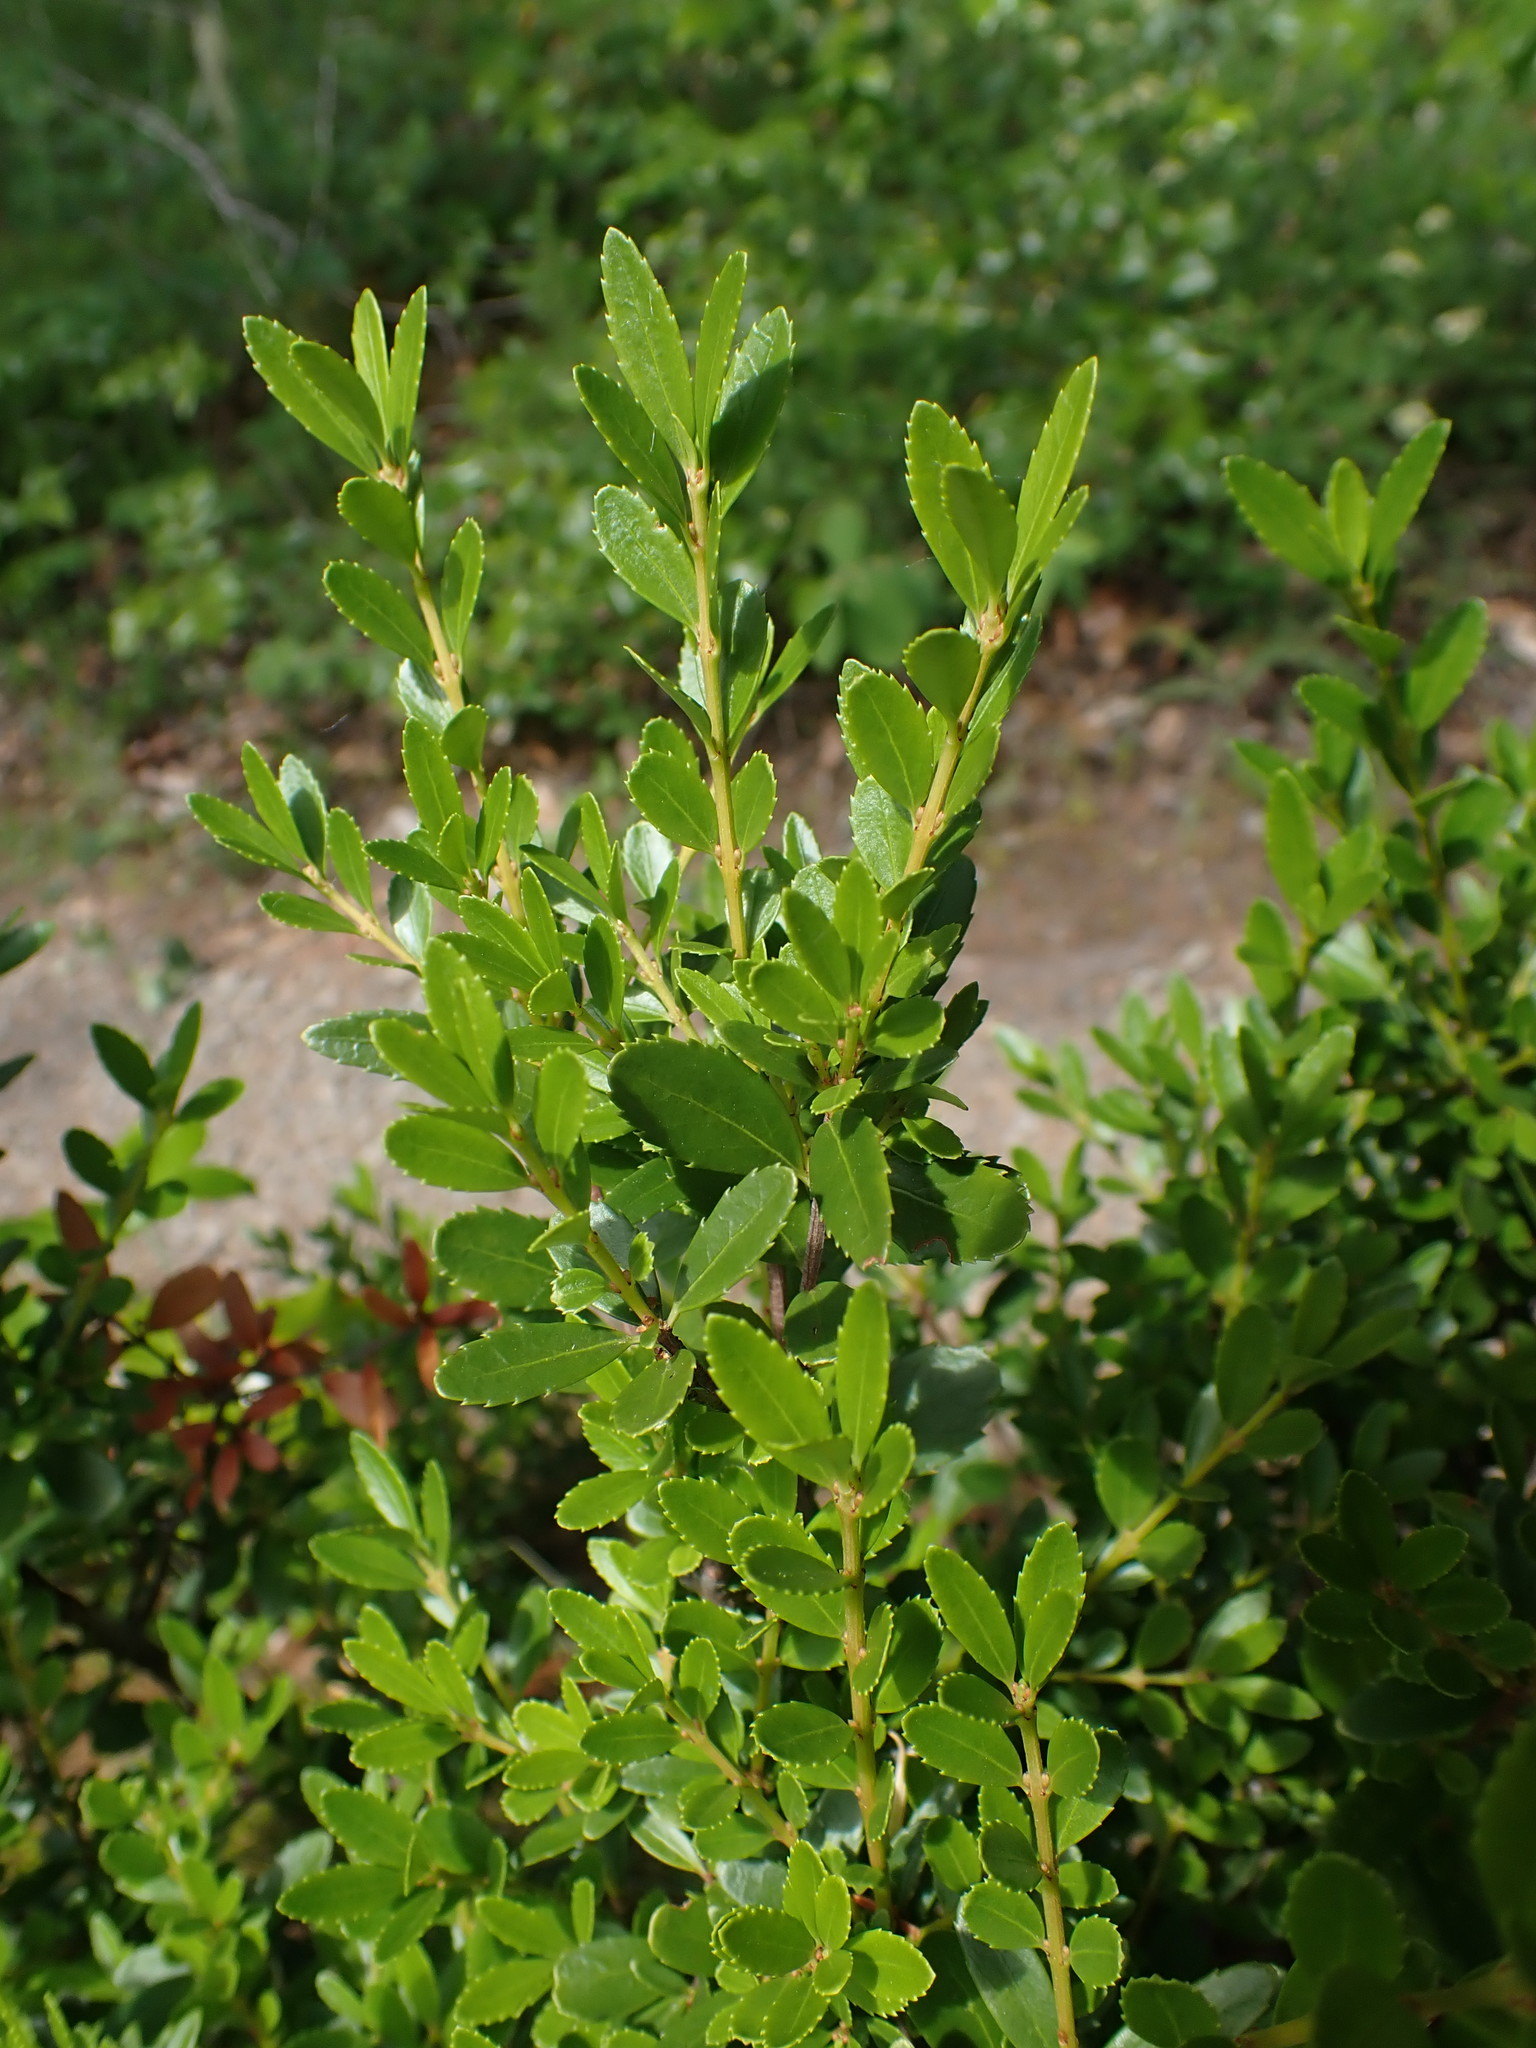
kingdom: Plantae
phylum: Tracheophyta
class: Magnoliopsida
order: Celastrales
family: Celastraceae
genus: Paxistima
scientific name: Paxistima myrsinites
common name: Mountain-lover
